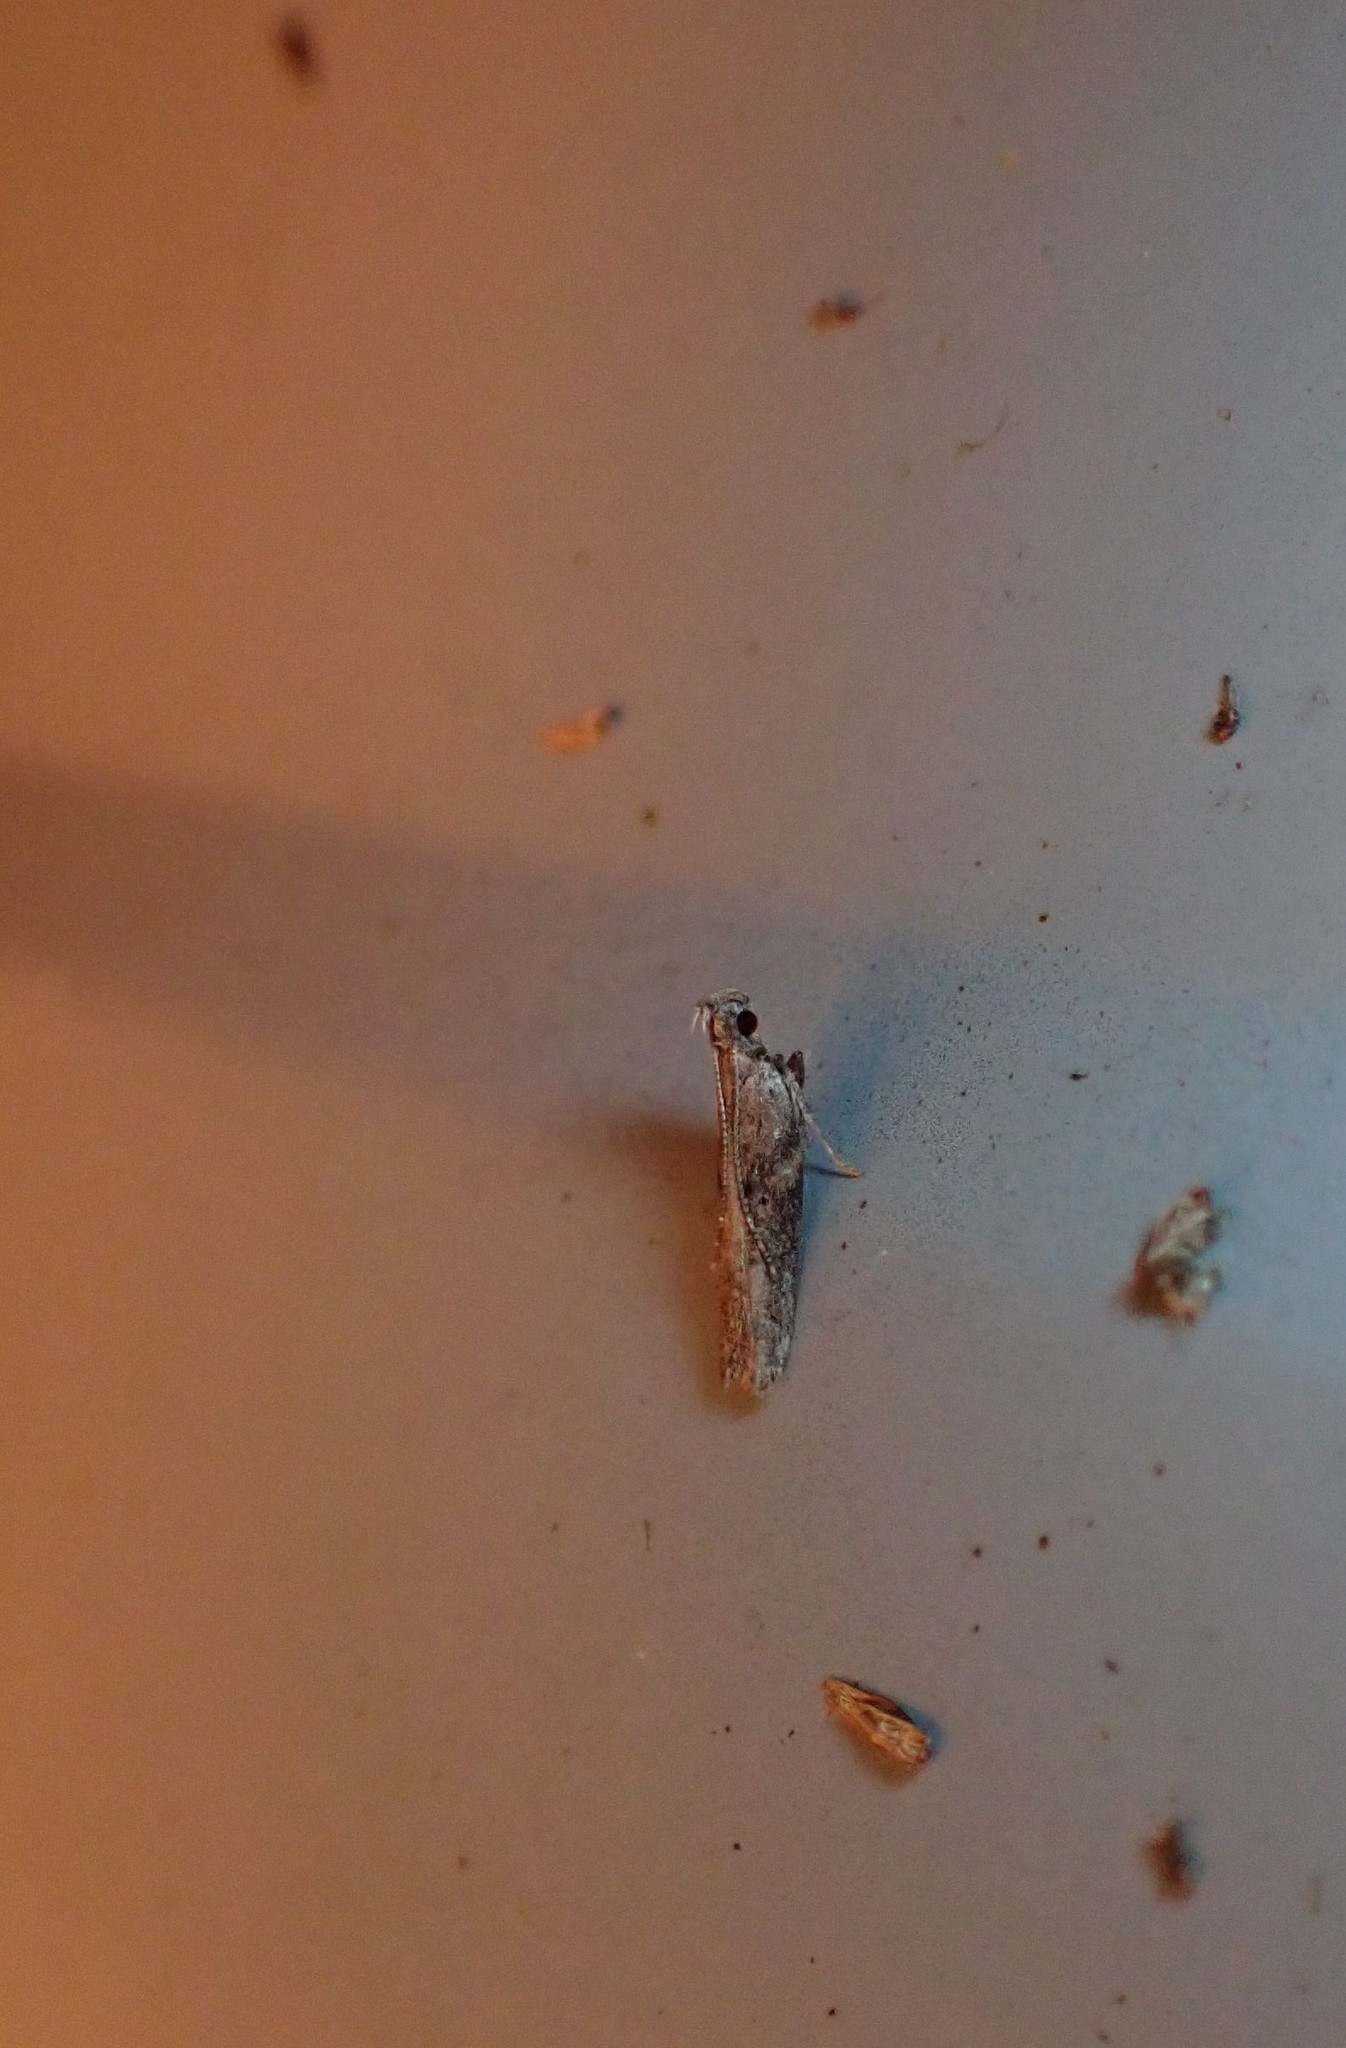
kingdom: Animalia
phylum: Arthropoda
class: Insecta
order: Lepidoptera
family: Depressariidae
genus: Eutorna
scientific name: Eutorna phaulocosma
